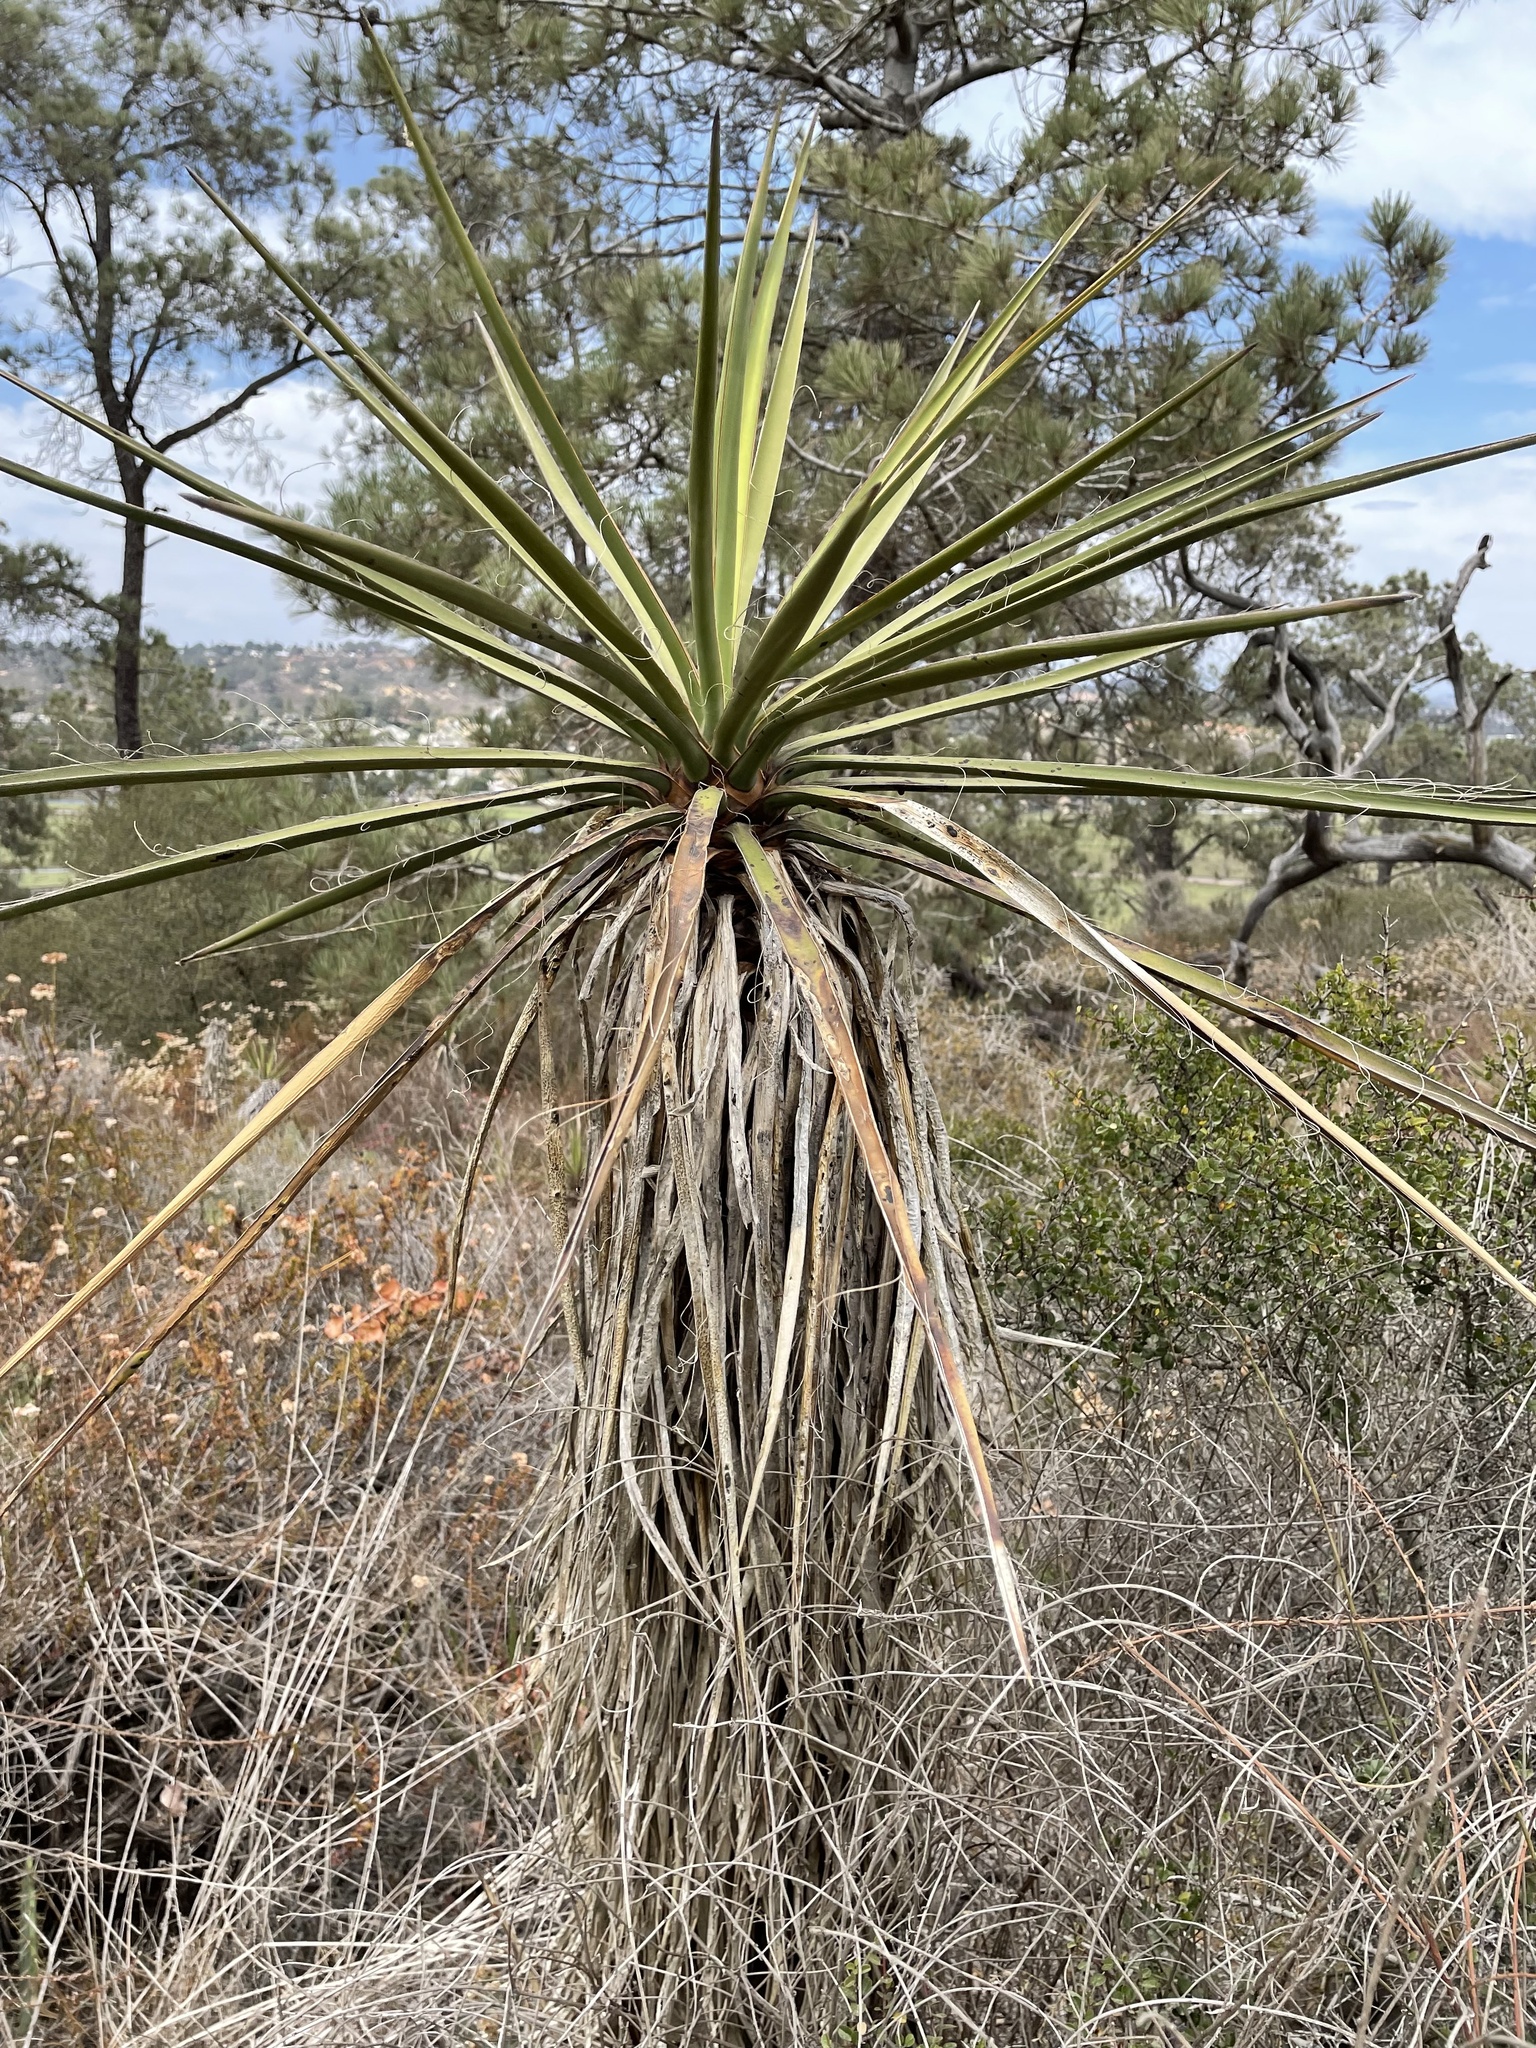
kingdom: Plantae
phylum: Tracheophyta
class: Liliopsida
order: Asparagales
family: Asparagaceae
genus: Yucca
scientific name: Yucca schidigera
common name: Mojave yucca
